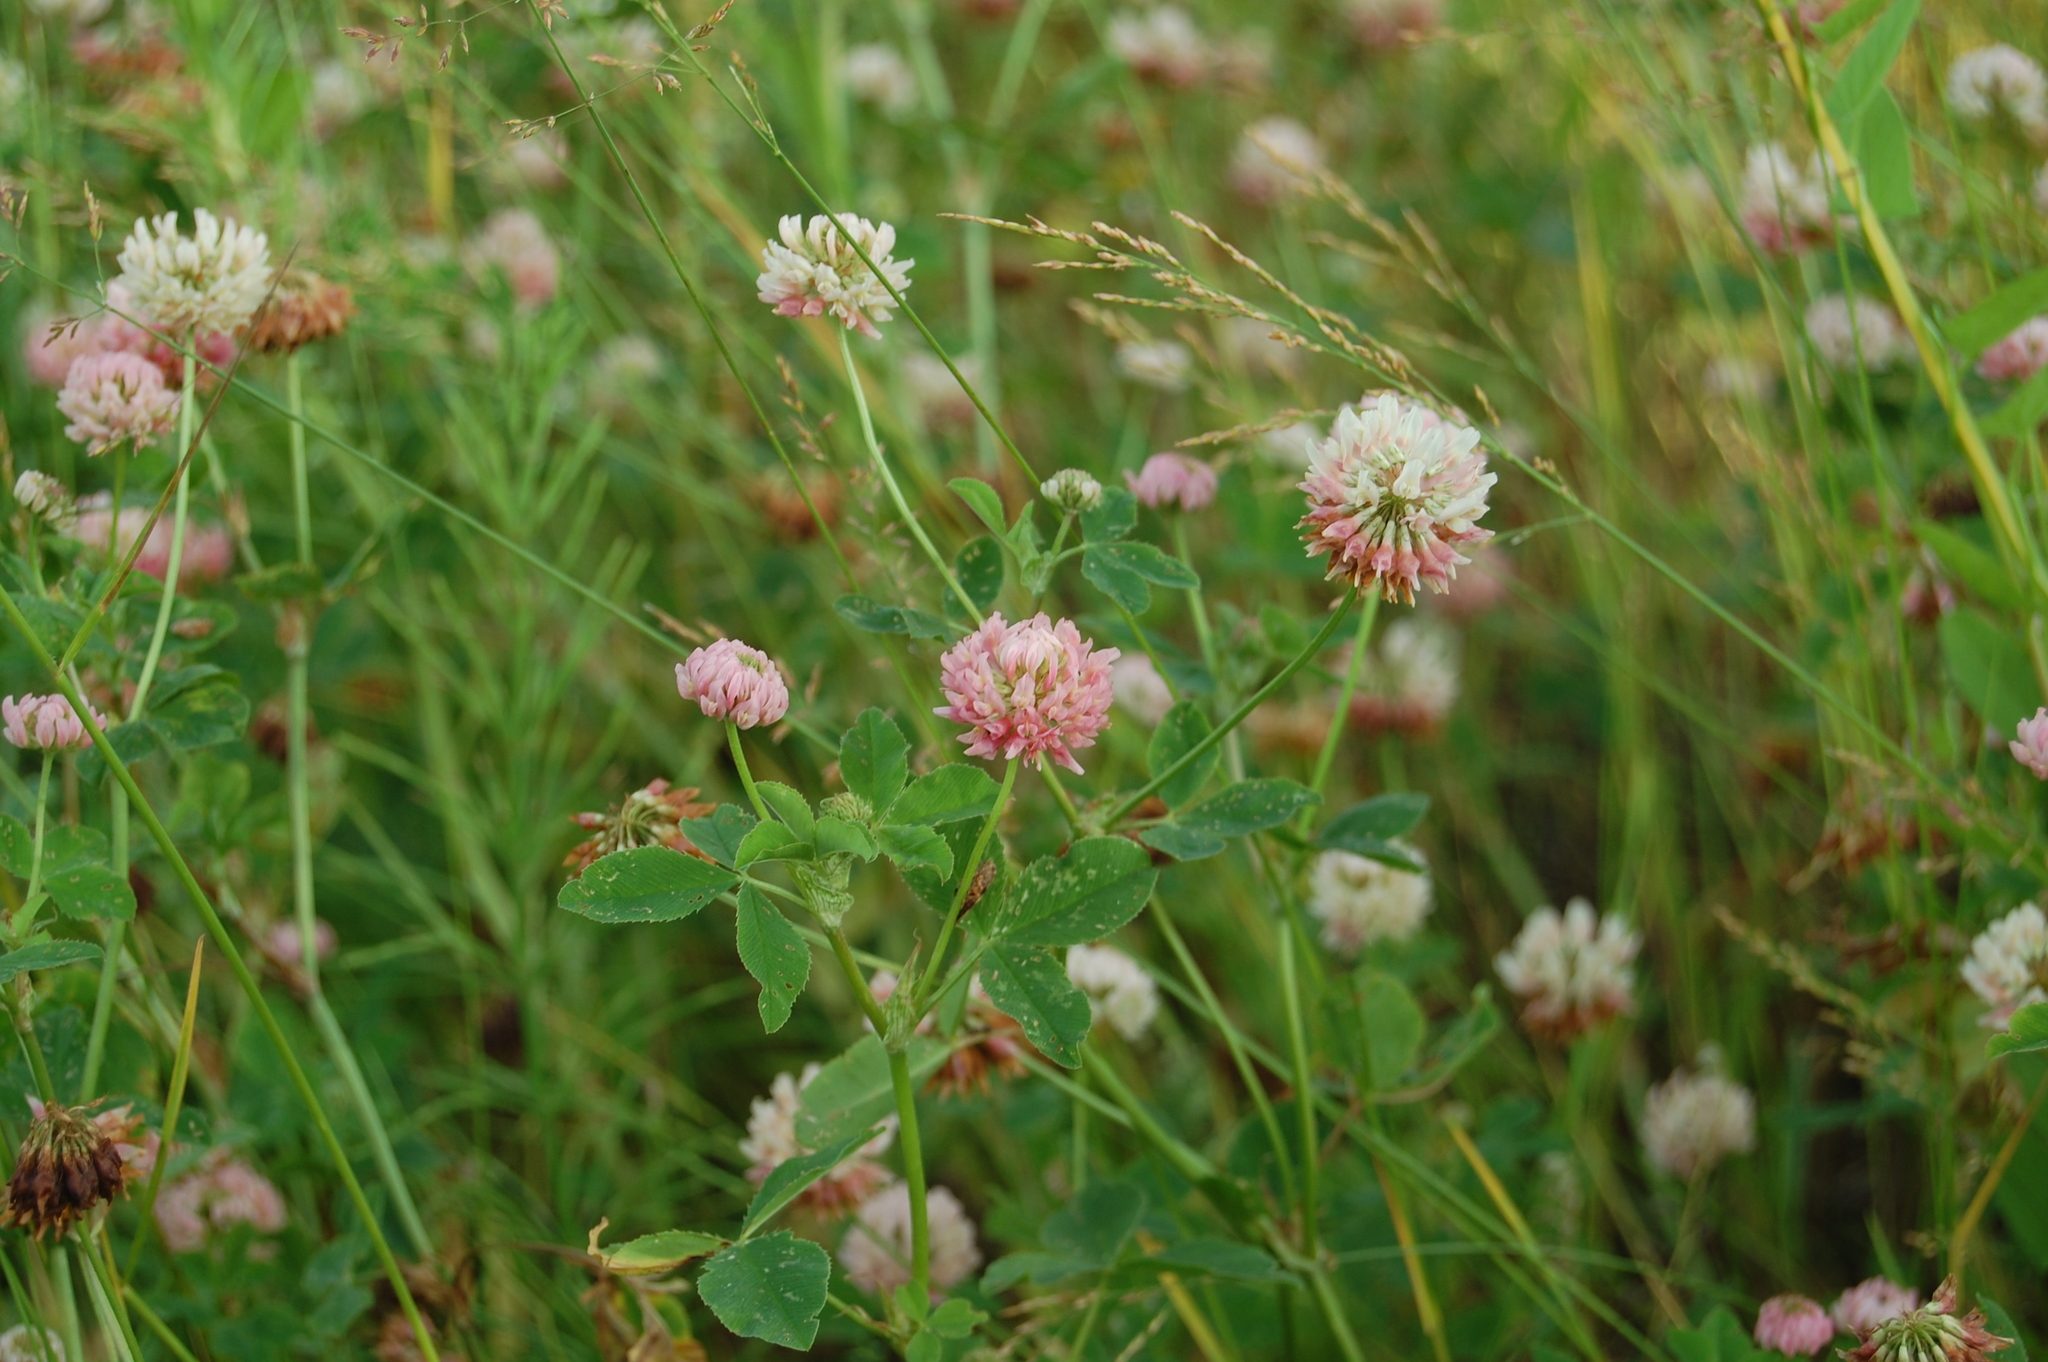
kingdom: Plantae
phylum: Tracheophyta
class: Magnoliopsida
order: Fabales
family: Fabaceae
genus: Trifolium
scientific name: Trifolium hybridum
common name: Alsike clover
